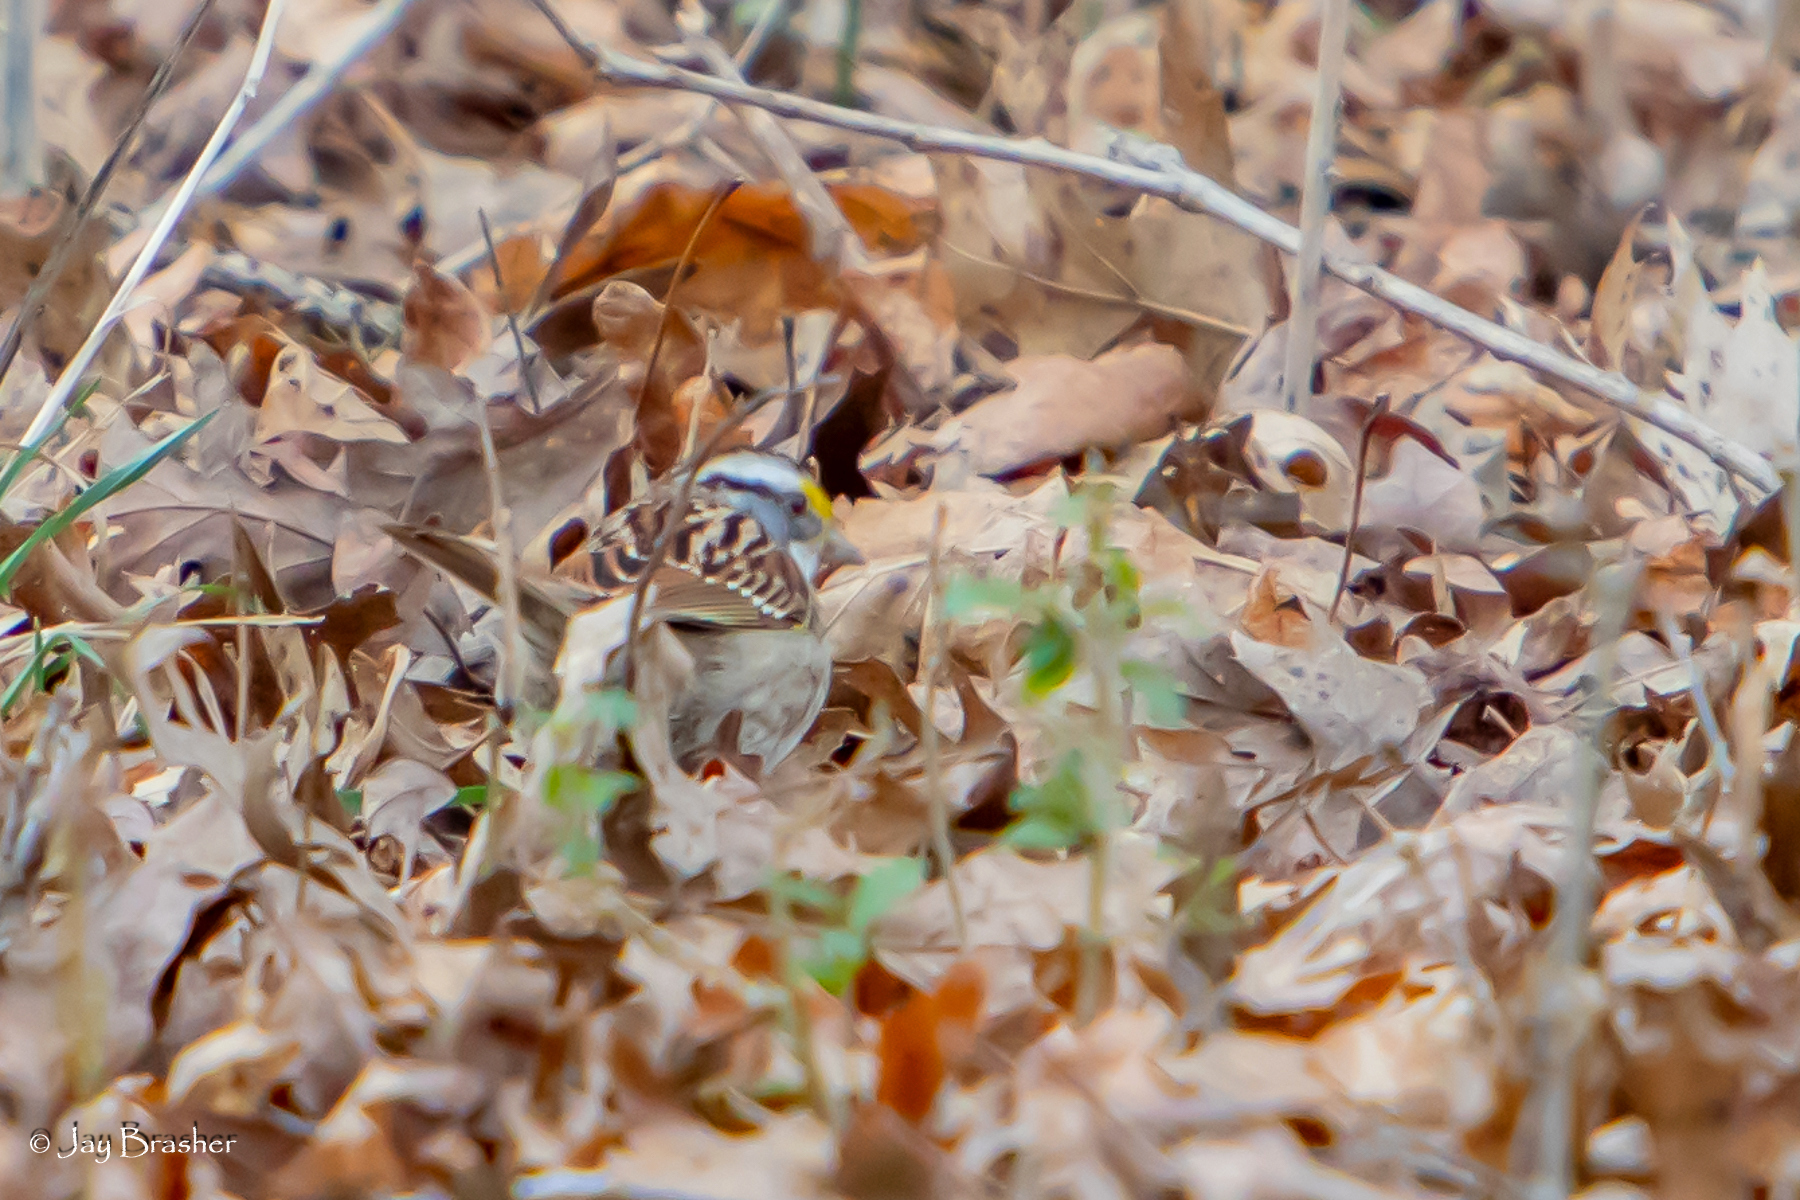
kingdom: Animalia
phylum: Chordata
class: Aves
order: Passeriformes
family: Passerellidae
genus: Zonotrichia
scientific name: Zonotrichia albicollis
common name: White-throated sparrow
